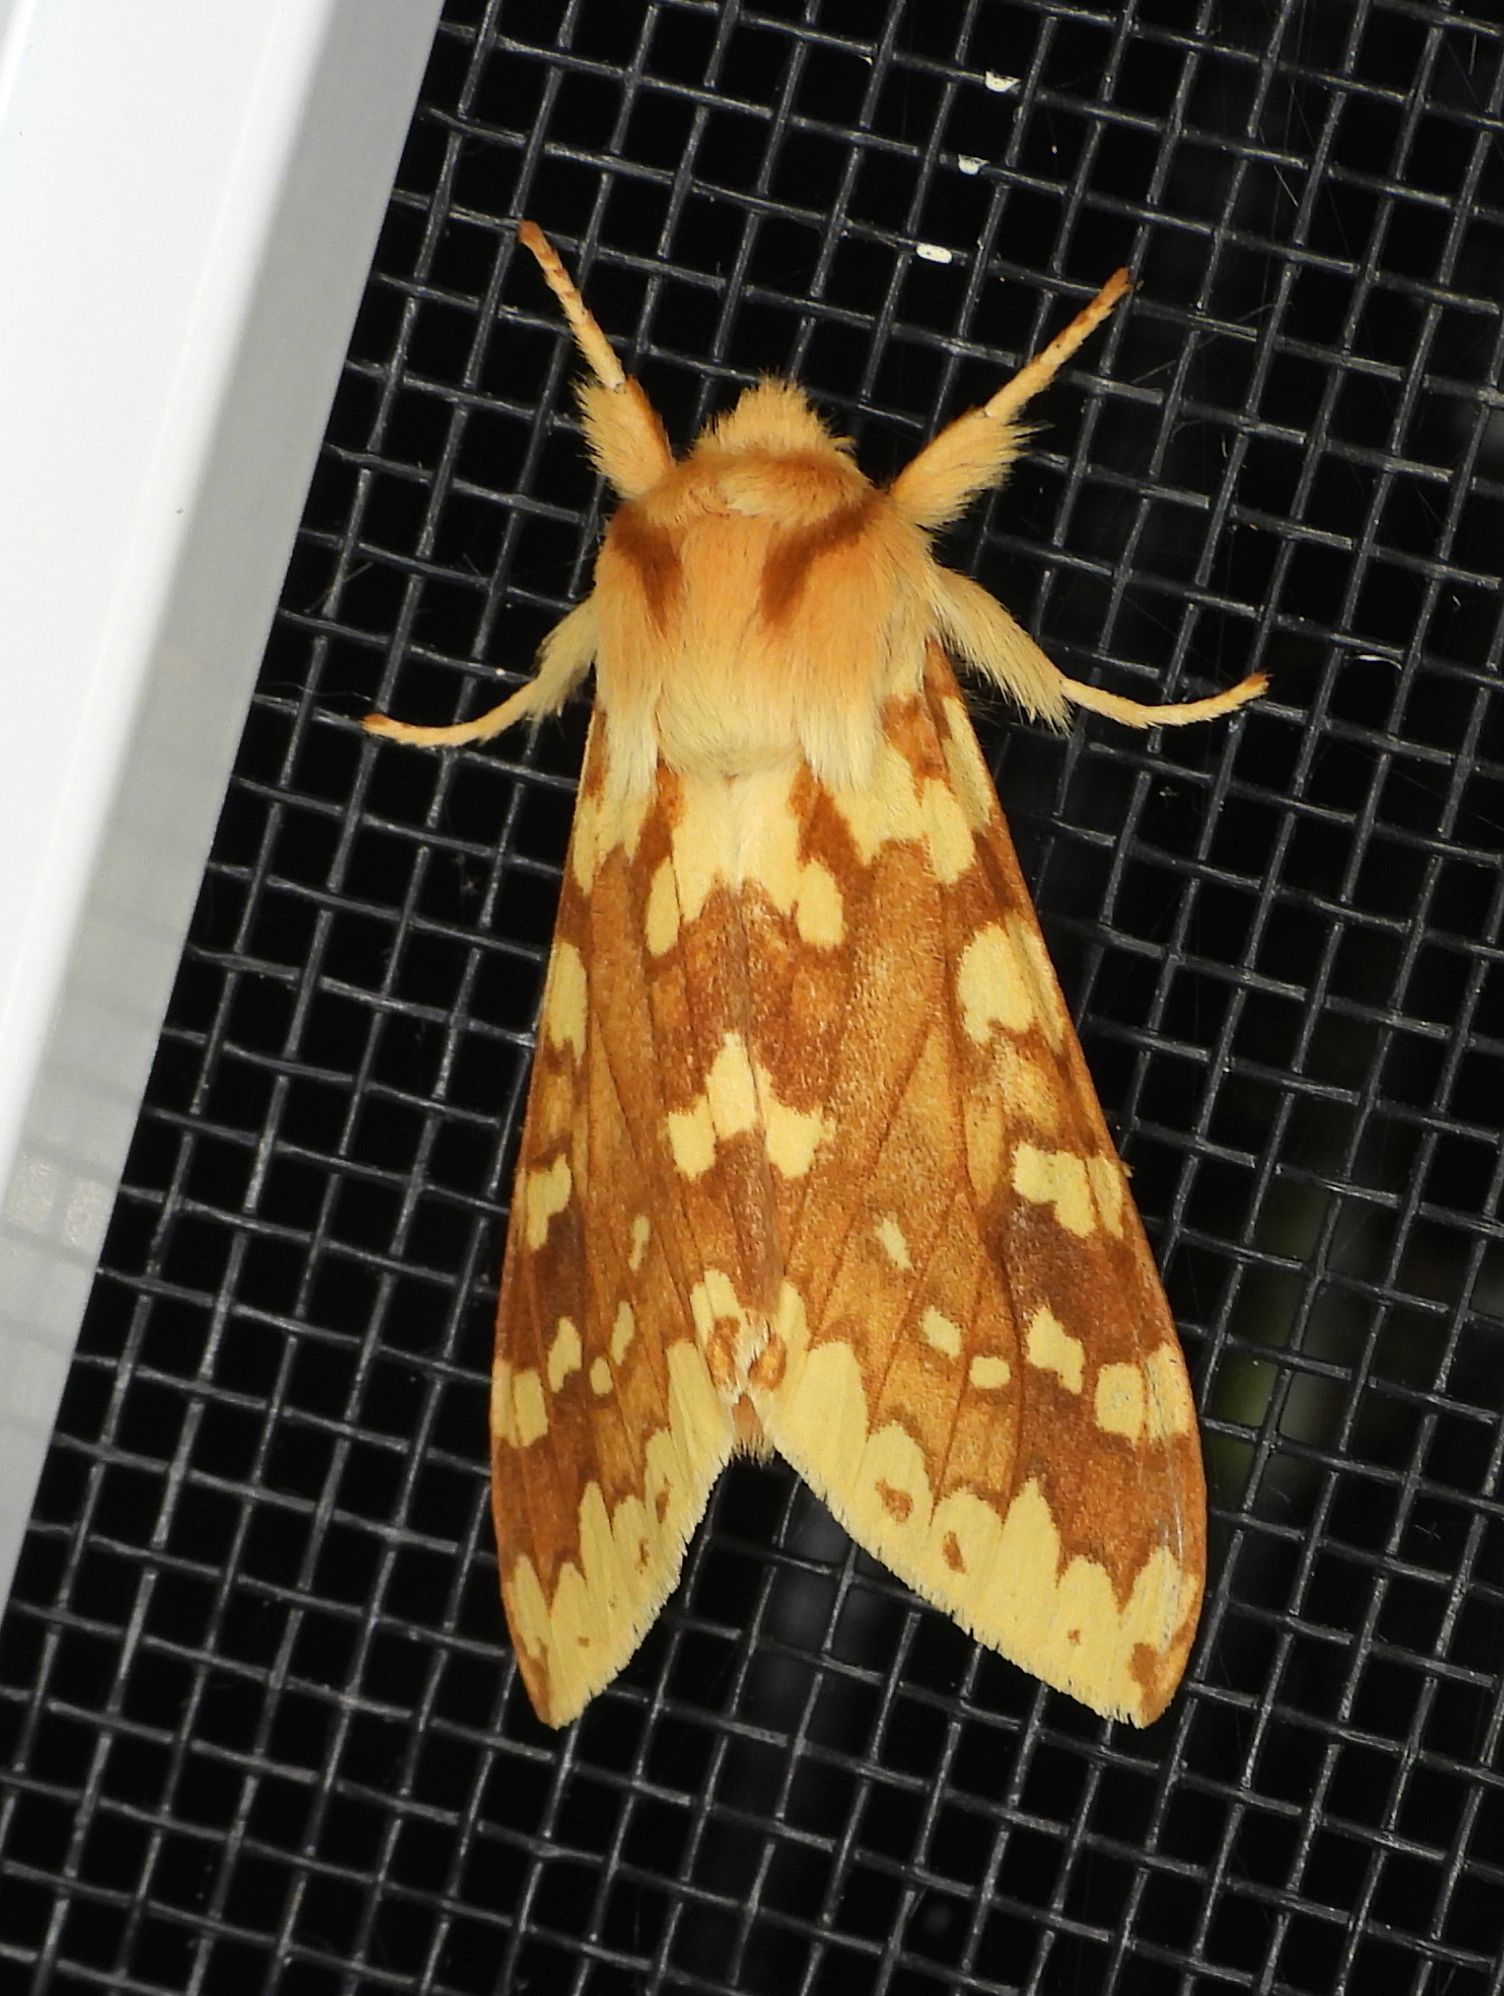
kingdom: Animalia
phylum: Arthropoda
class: Insecta
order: Lepidoptera
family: Erebidae
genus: Lophocampa
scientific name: Lophocampa maculata
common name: Spotted tussock moth
